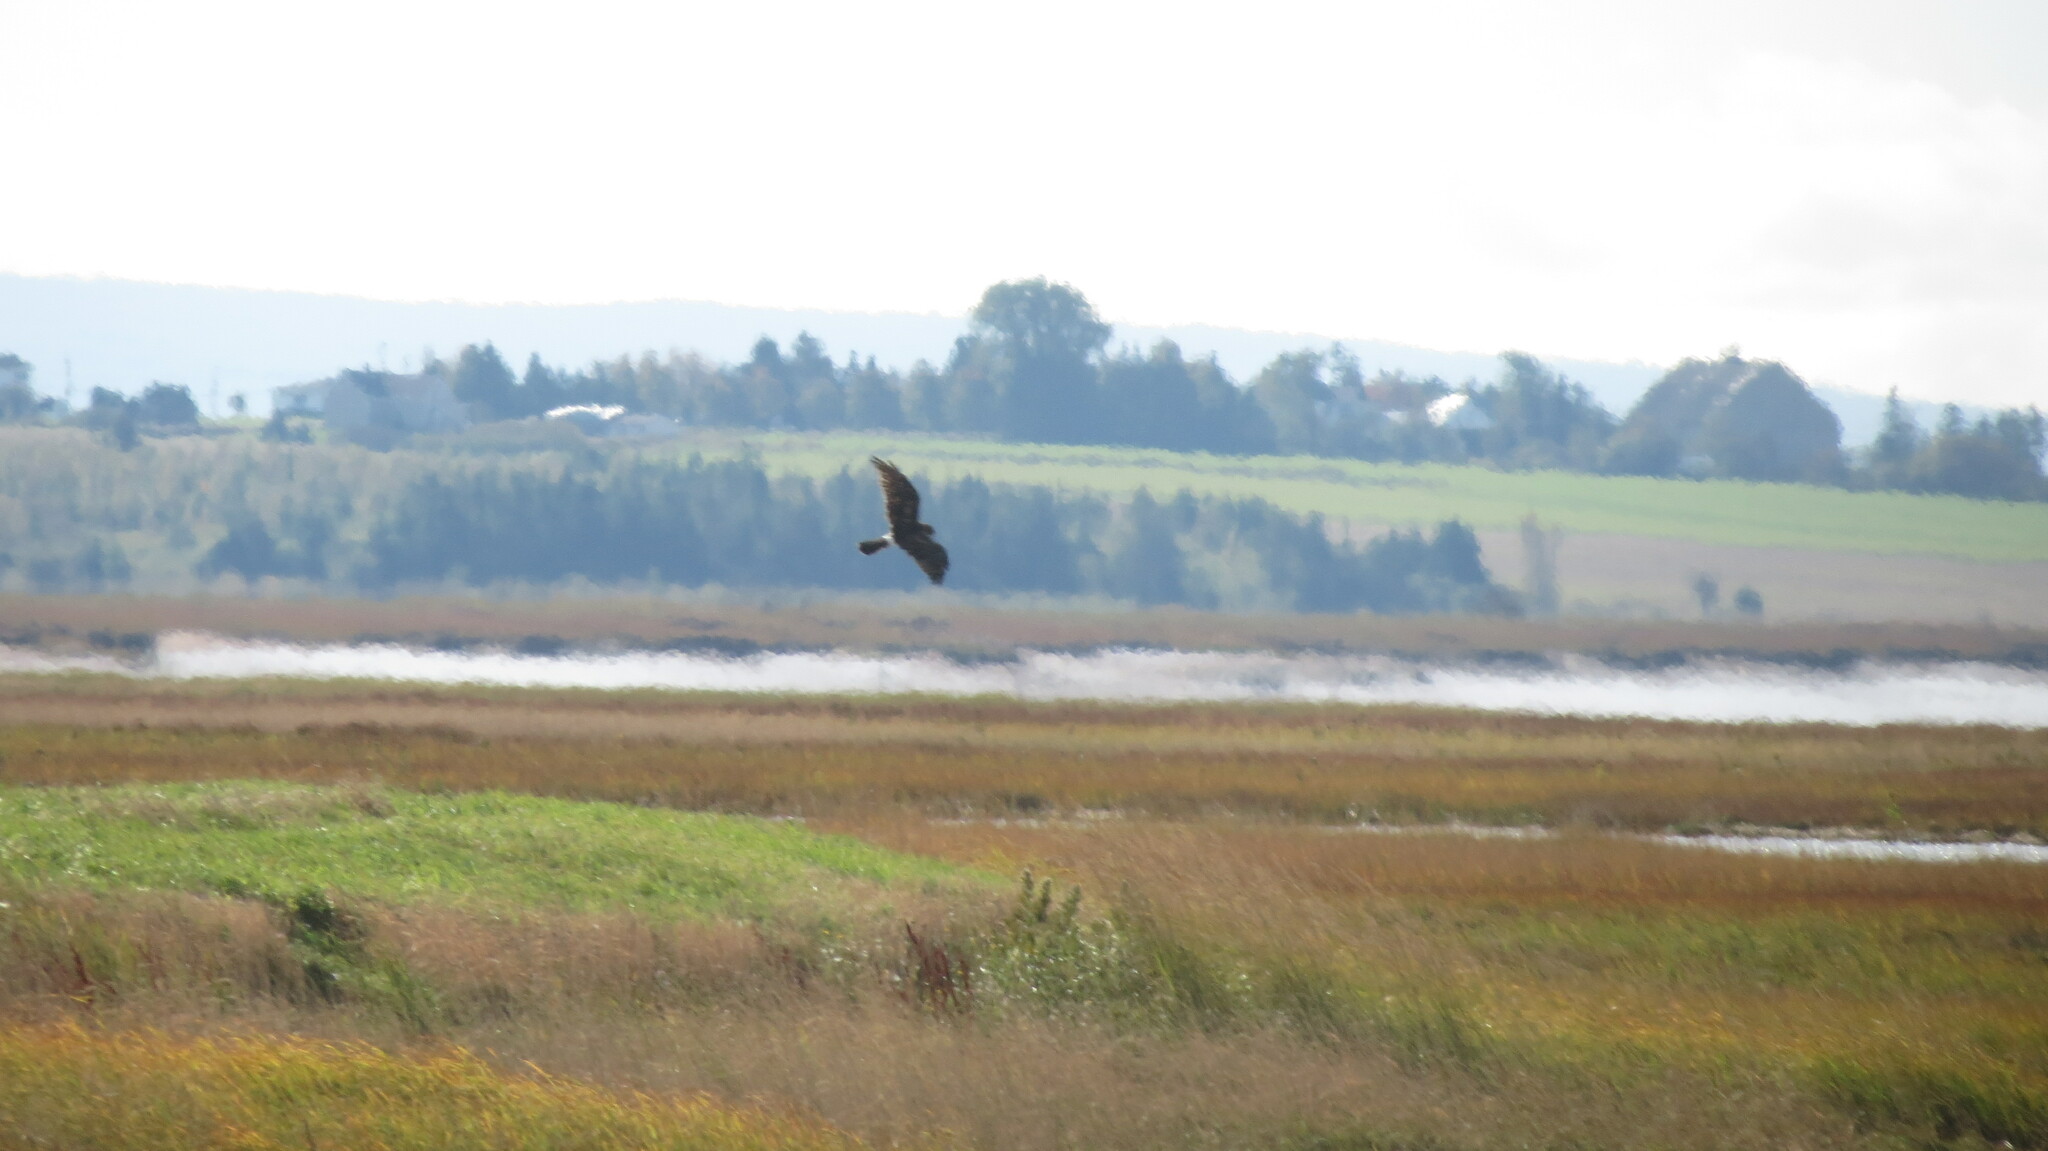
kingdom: Animalia
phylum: Chordata
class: Aves
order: Accipitriformes
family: Accipitridae
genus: Circus
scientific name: Circus cyaneus
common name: Hen harrier
